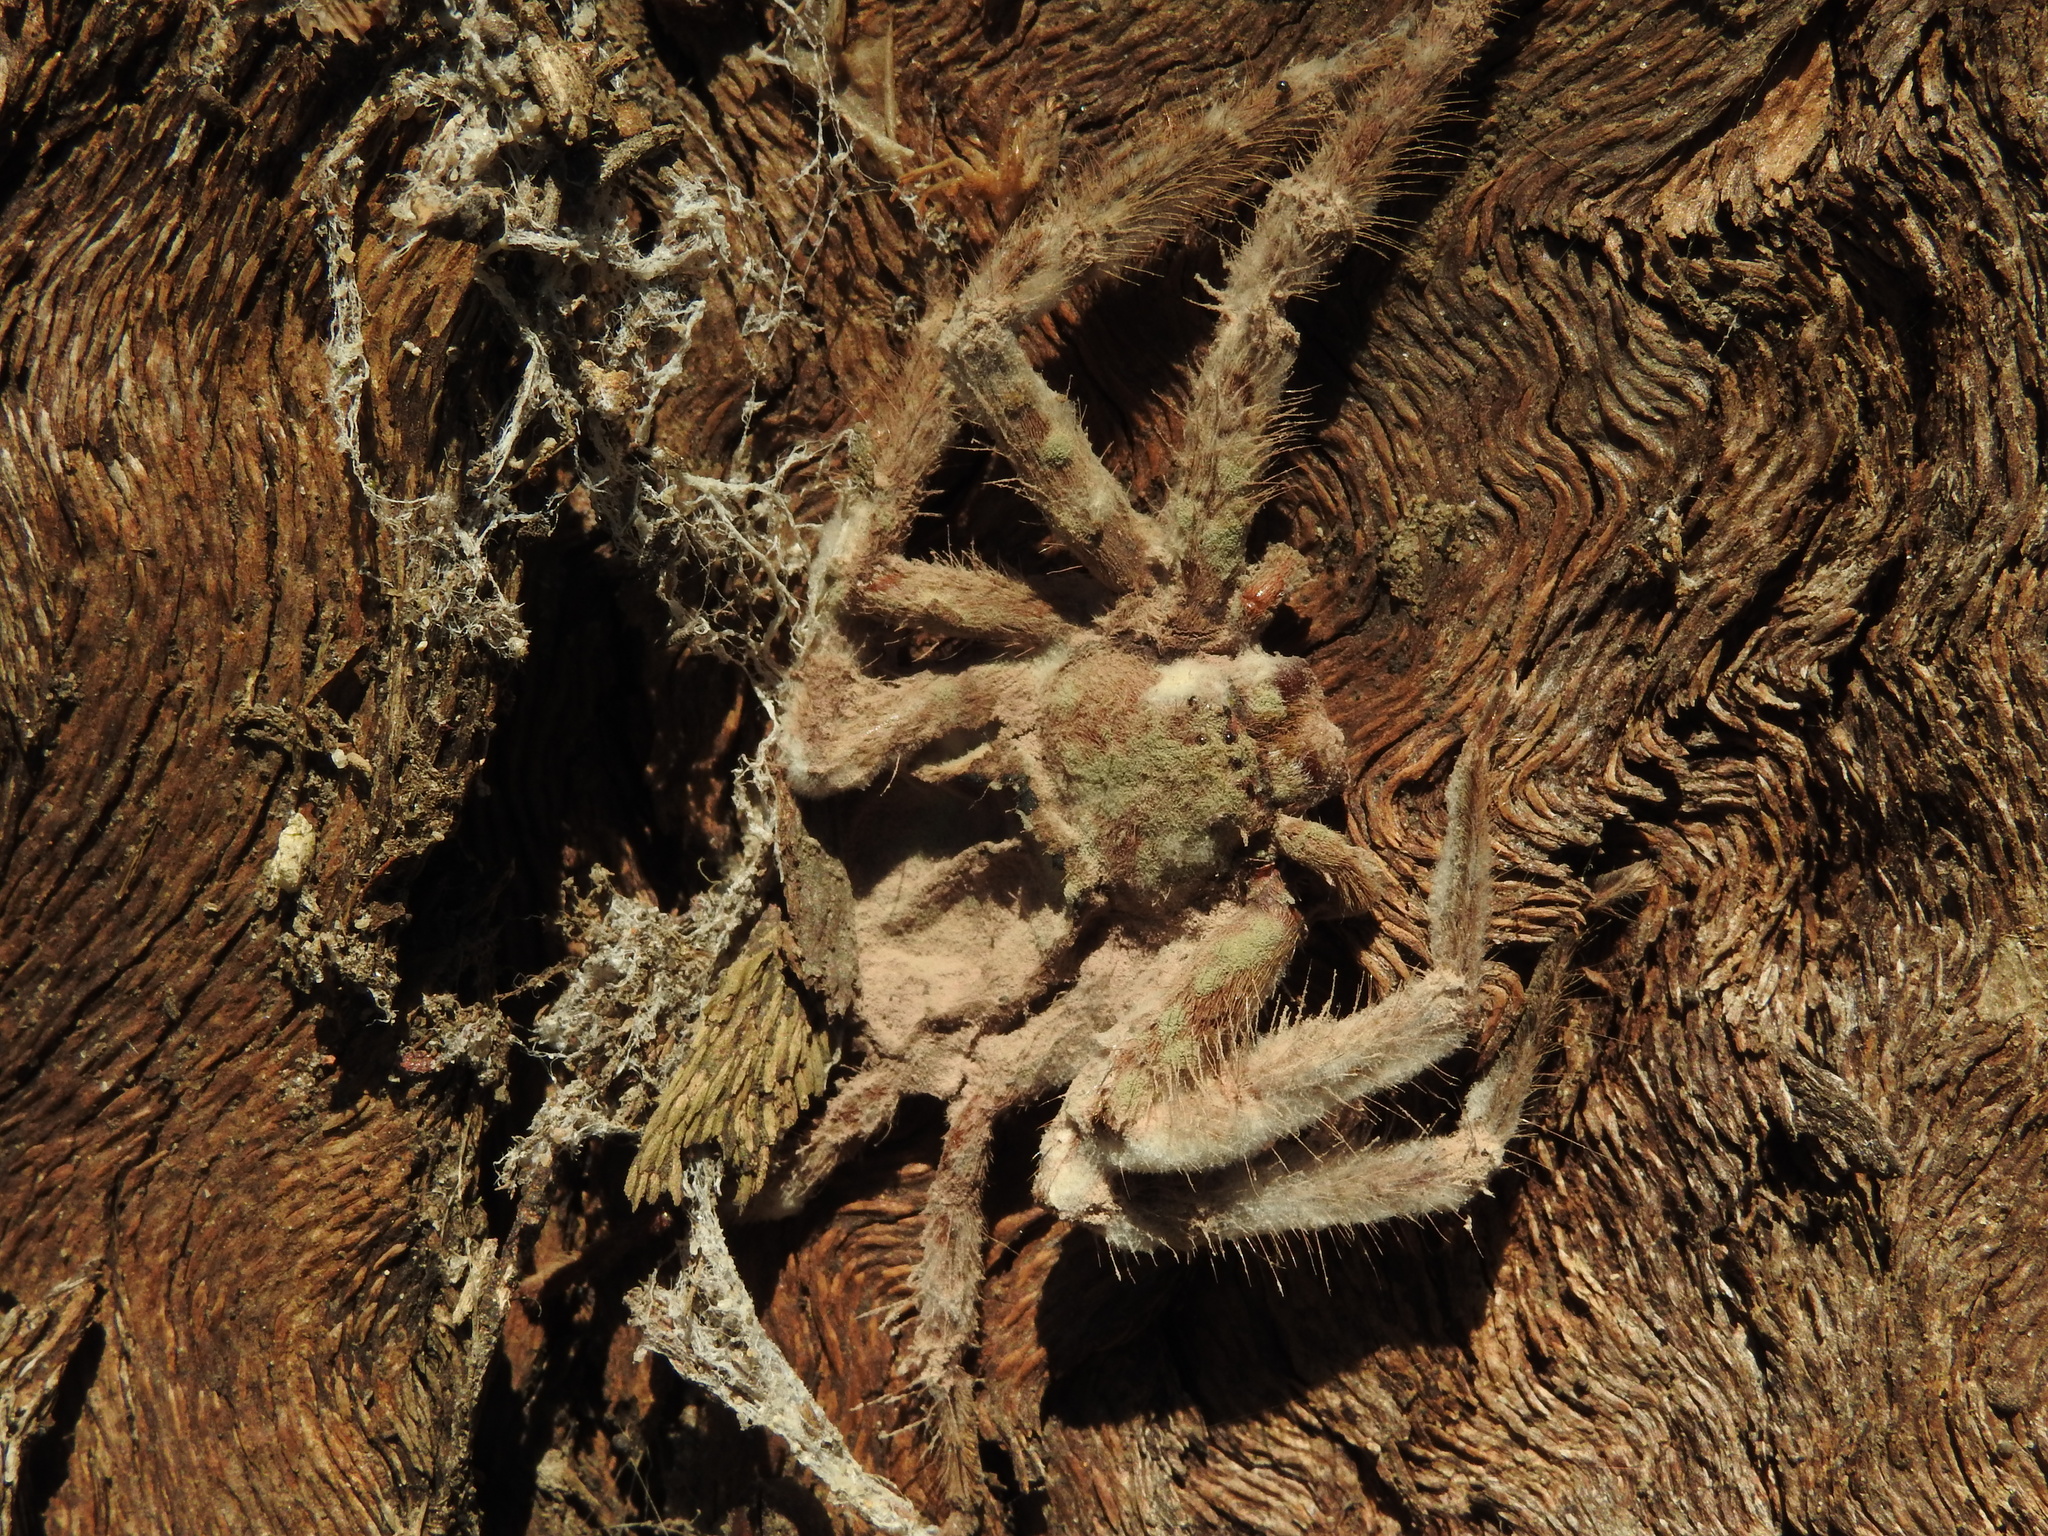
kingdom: Animalia
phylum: Arthropoda
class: Arachnida
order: Araneae
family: Sparassidae
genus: Isopeda
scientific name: Isopeda villosa
